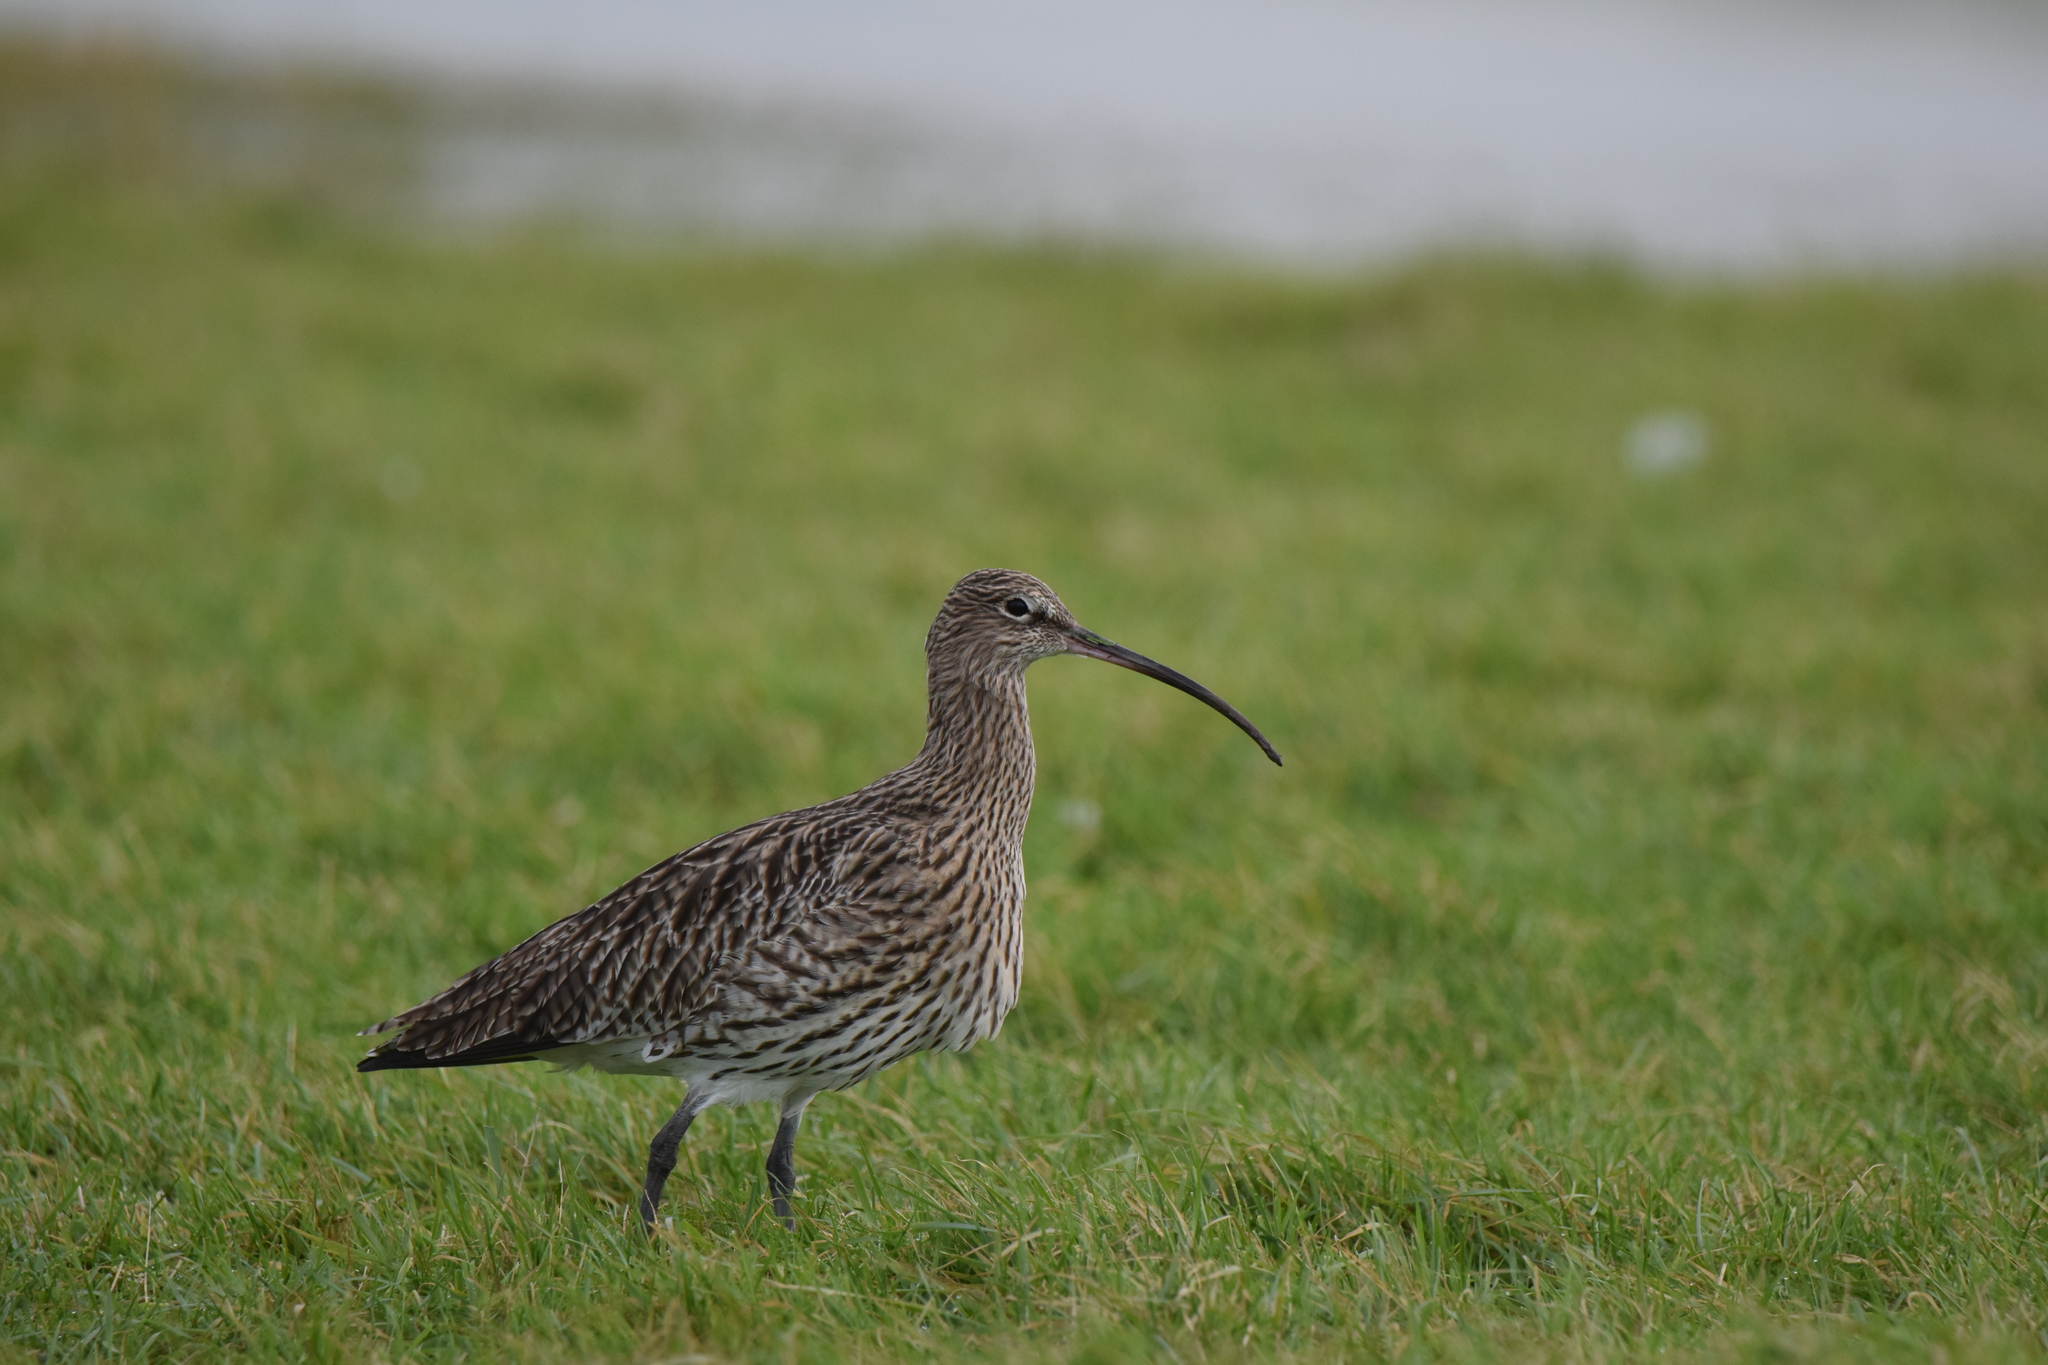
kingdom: Animalia
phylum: Chordata
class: Aves
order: Charadriiformes
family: Scolopacidae
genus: Numenius
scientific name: Numenius arquata
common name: Eurasian curlew
